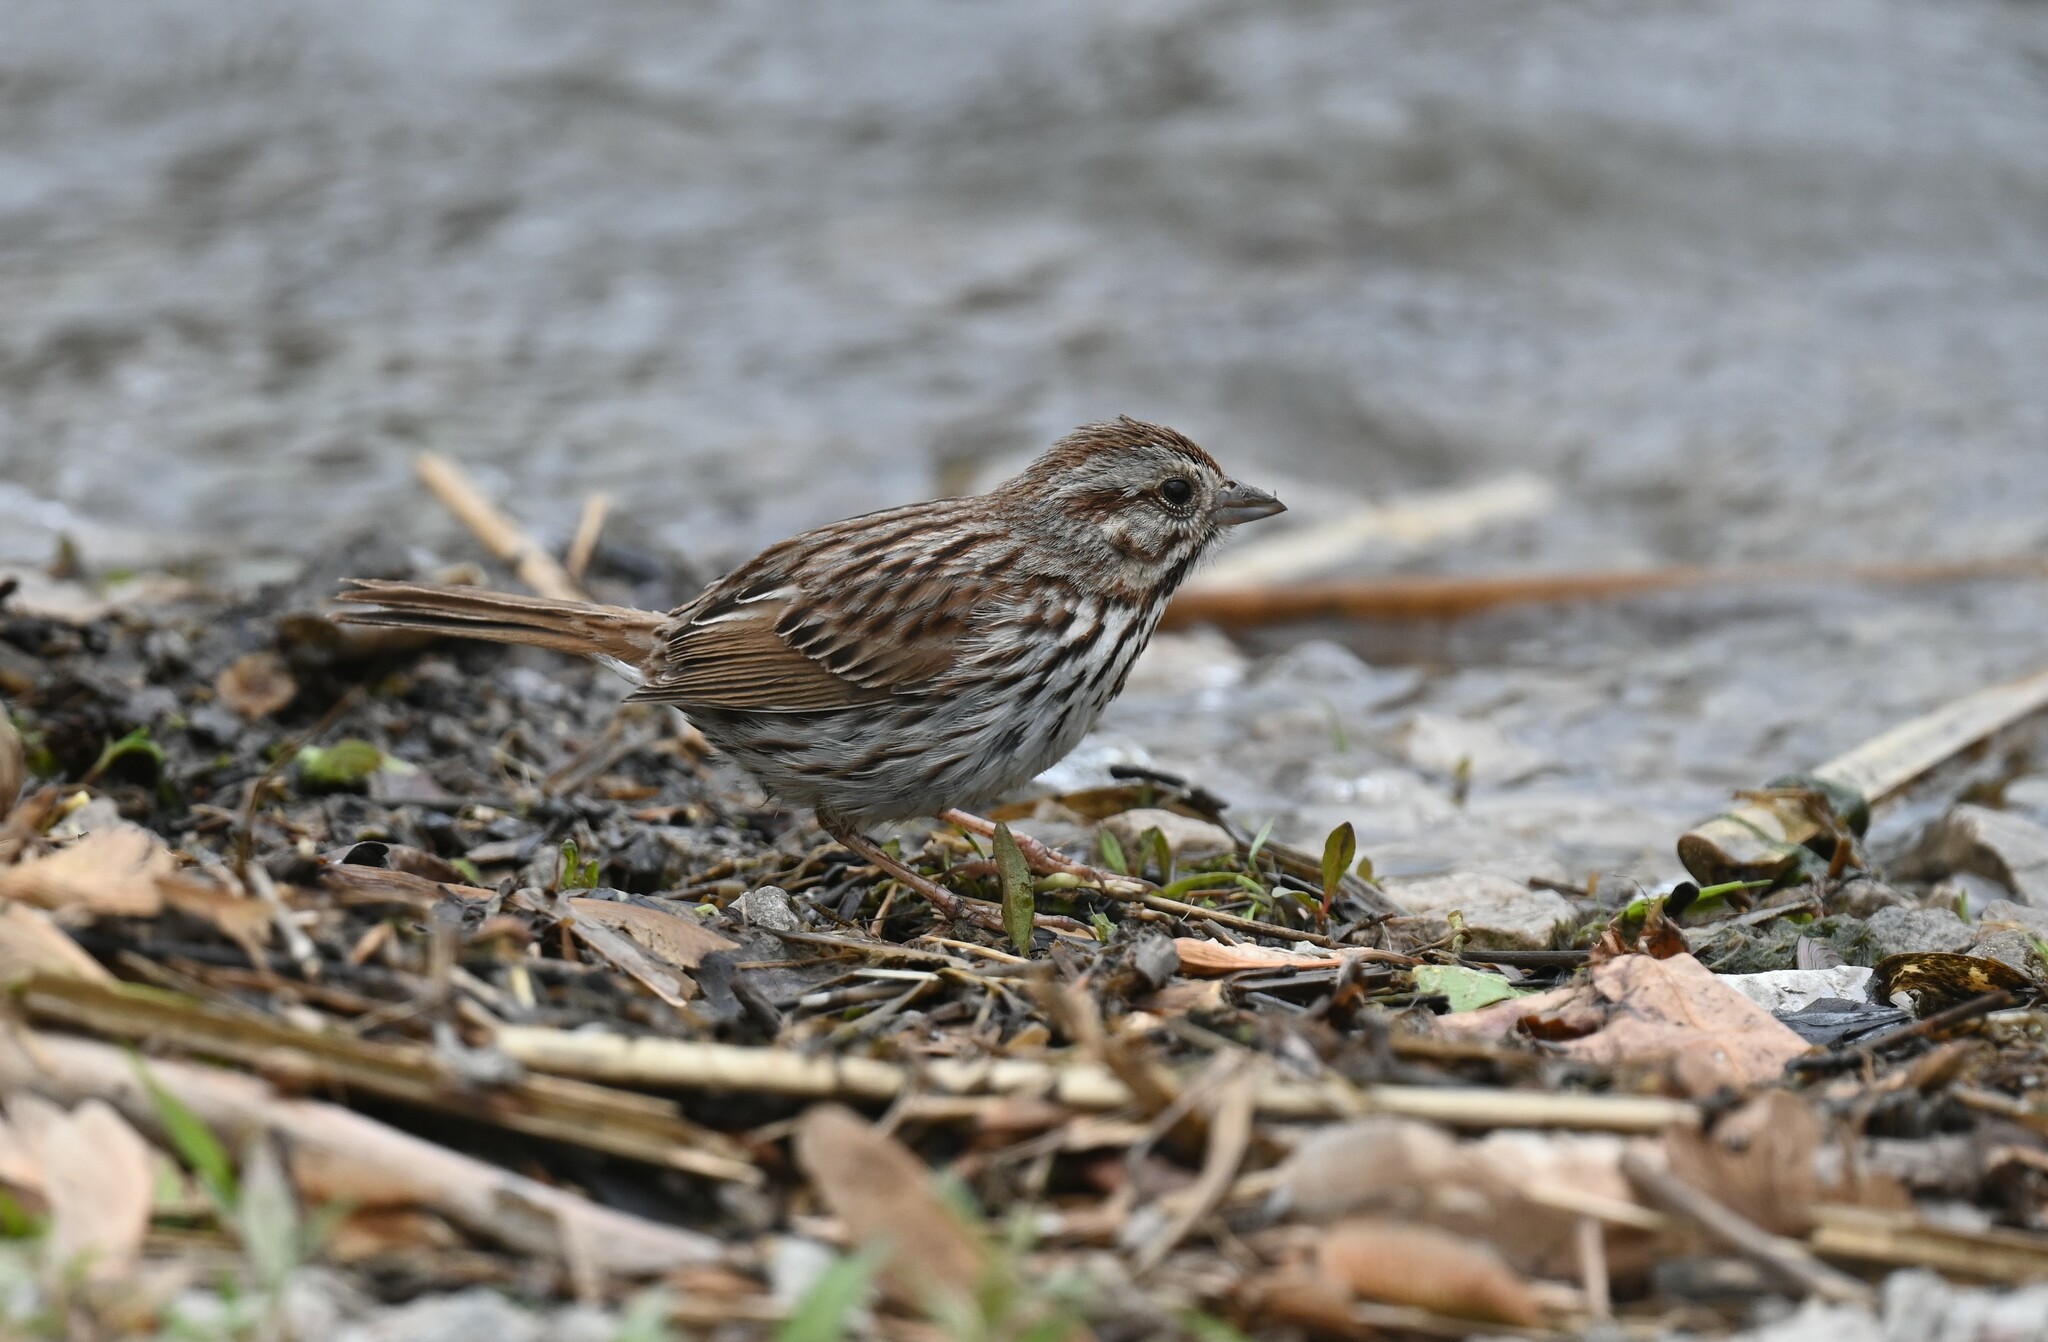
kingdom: Animalia
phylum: Chordata
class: Aves
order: Passeriformes
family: Passerellidae
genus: Melospiza
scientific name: Melospiza melodia
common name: Song sparrow
